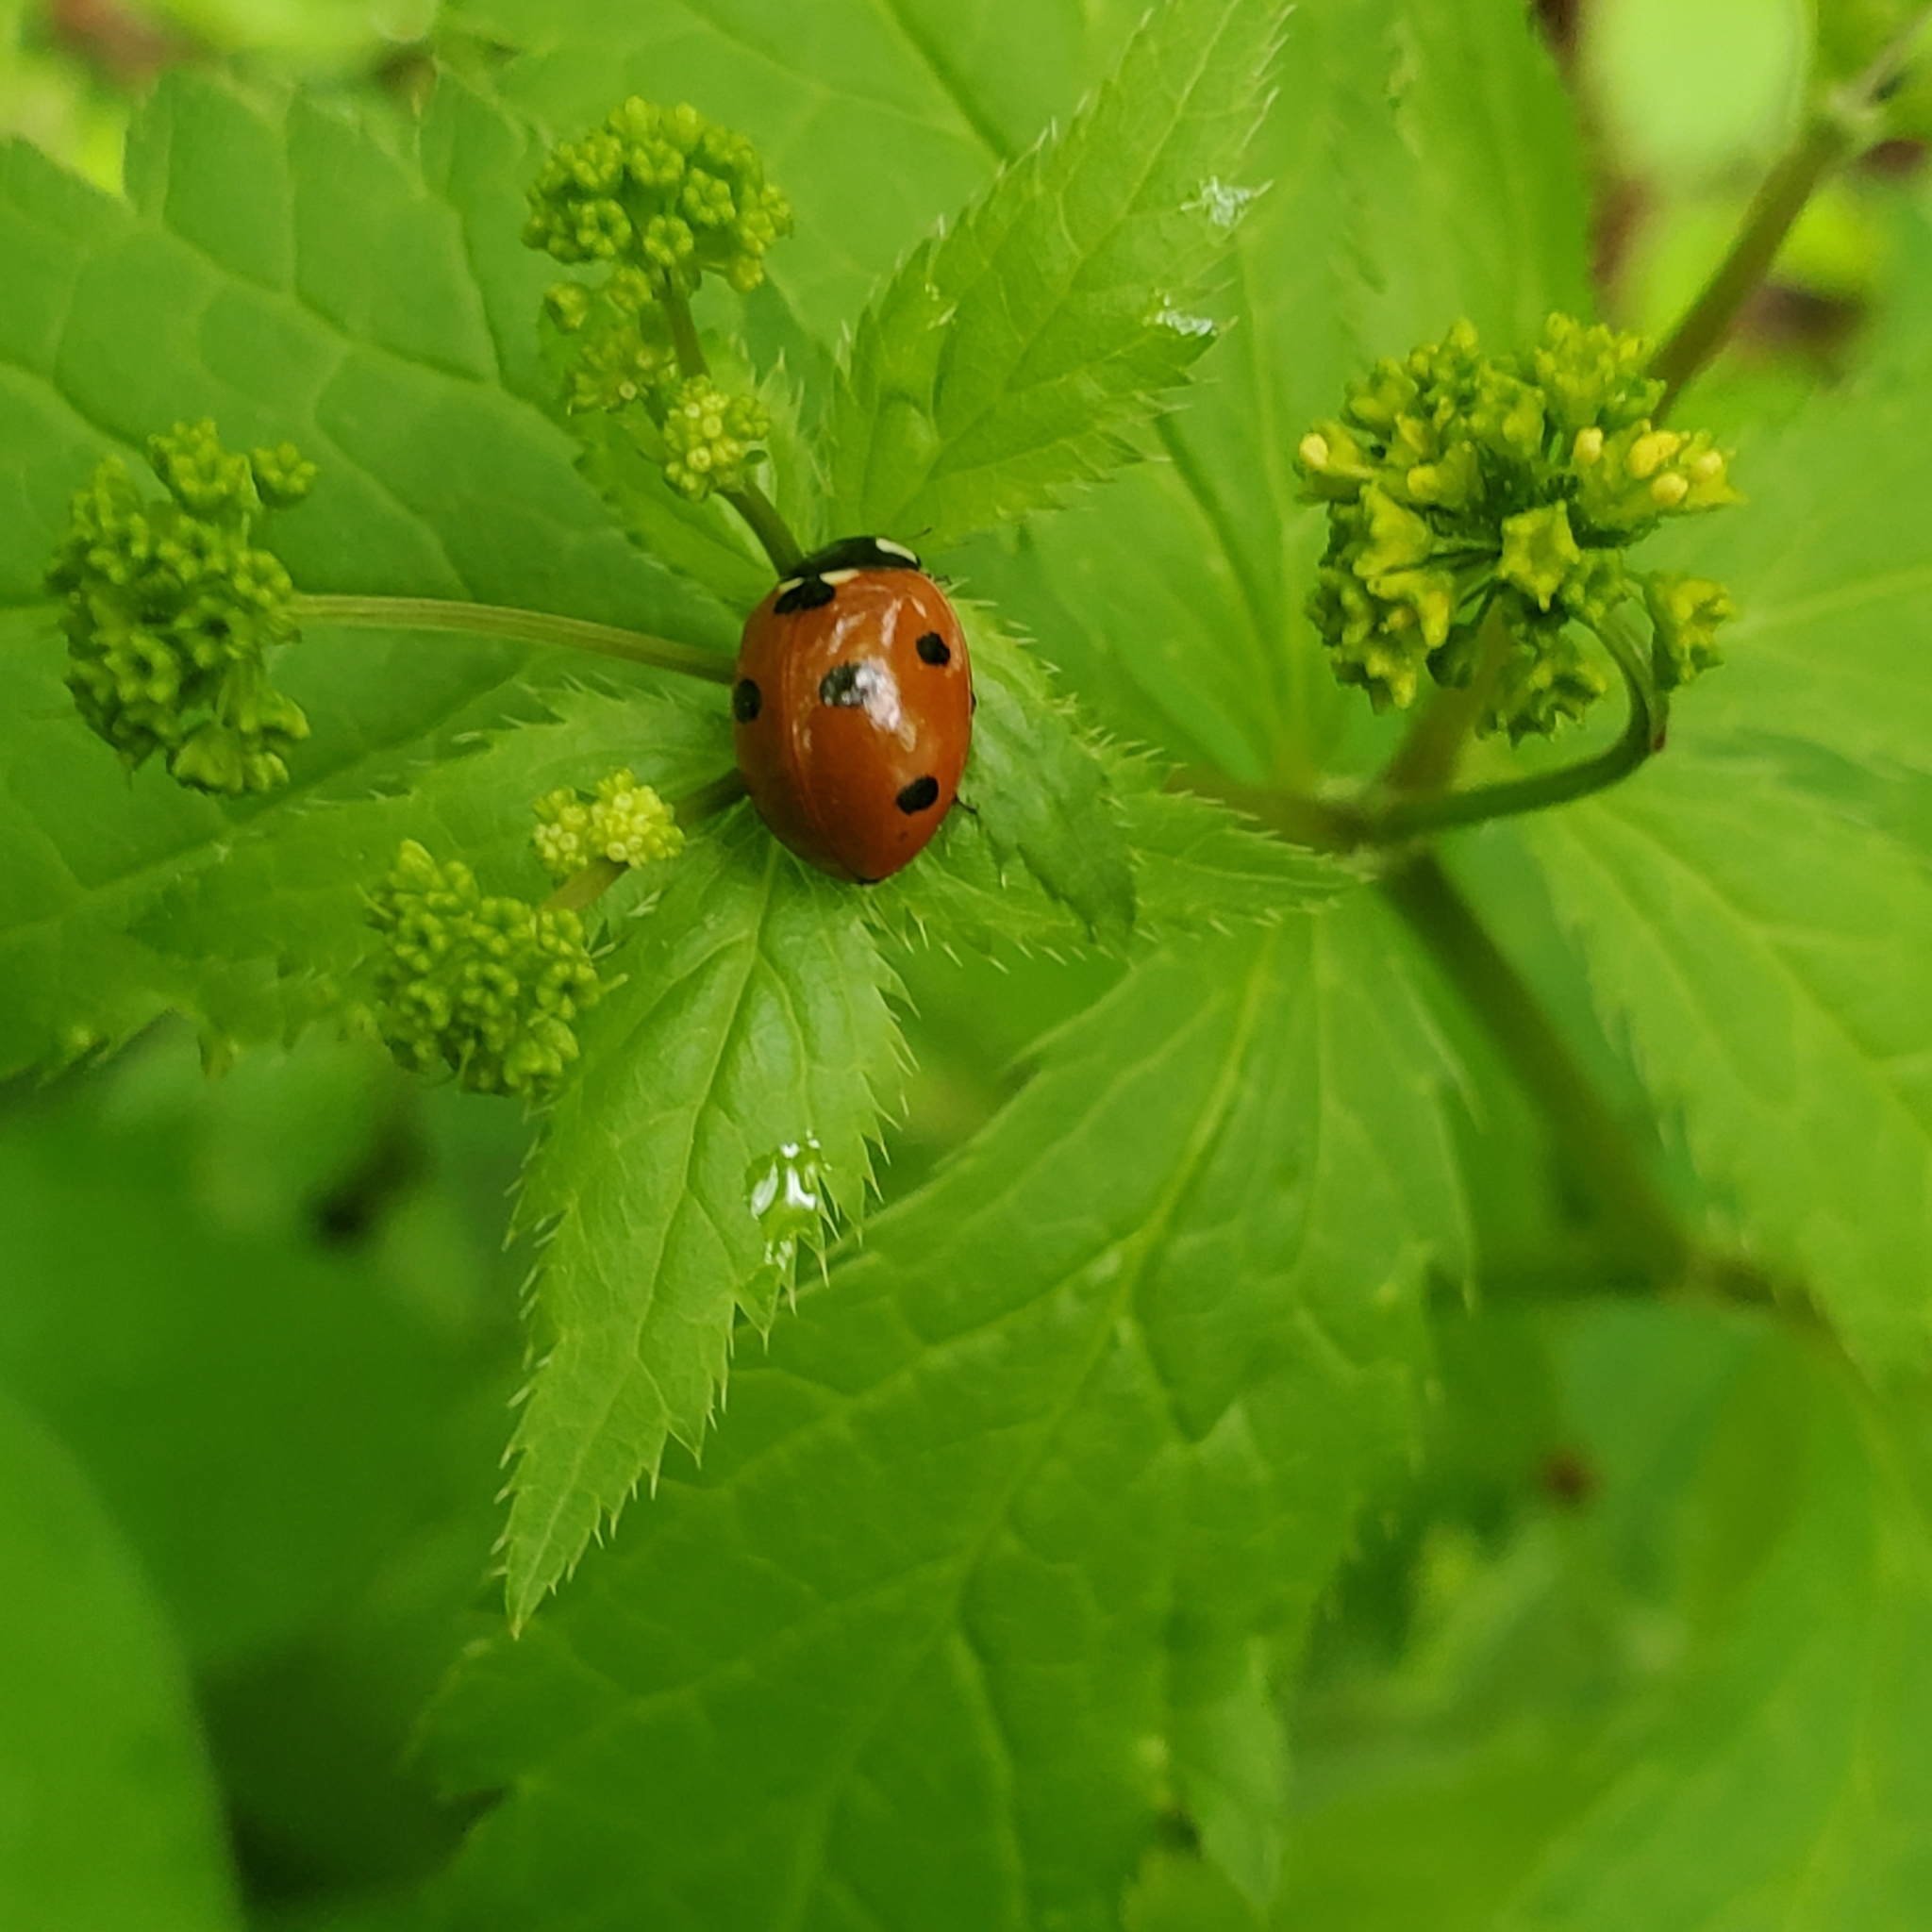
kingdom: Animalia
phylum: Arthropoda
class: Insecta
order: Coleoptera
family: Coccinellidae
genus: Coccinella
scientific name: Coccinella septempunctata
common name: Sevenspotted lady beetle
